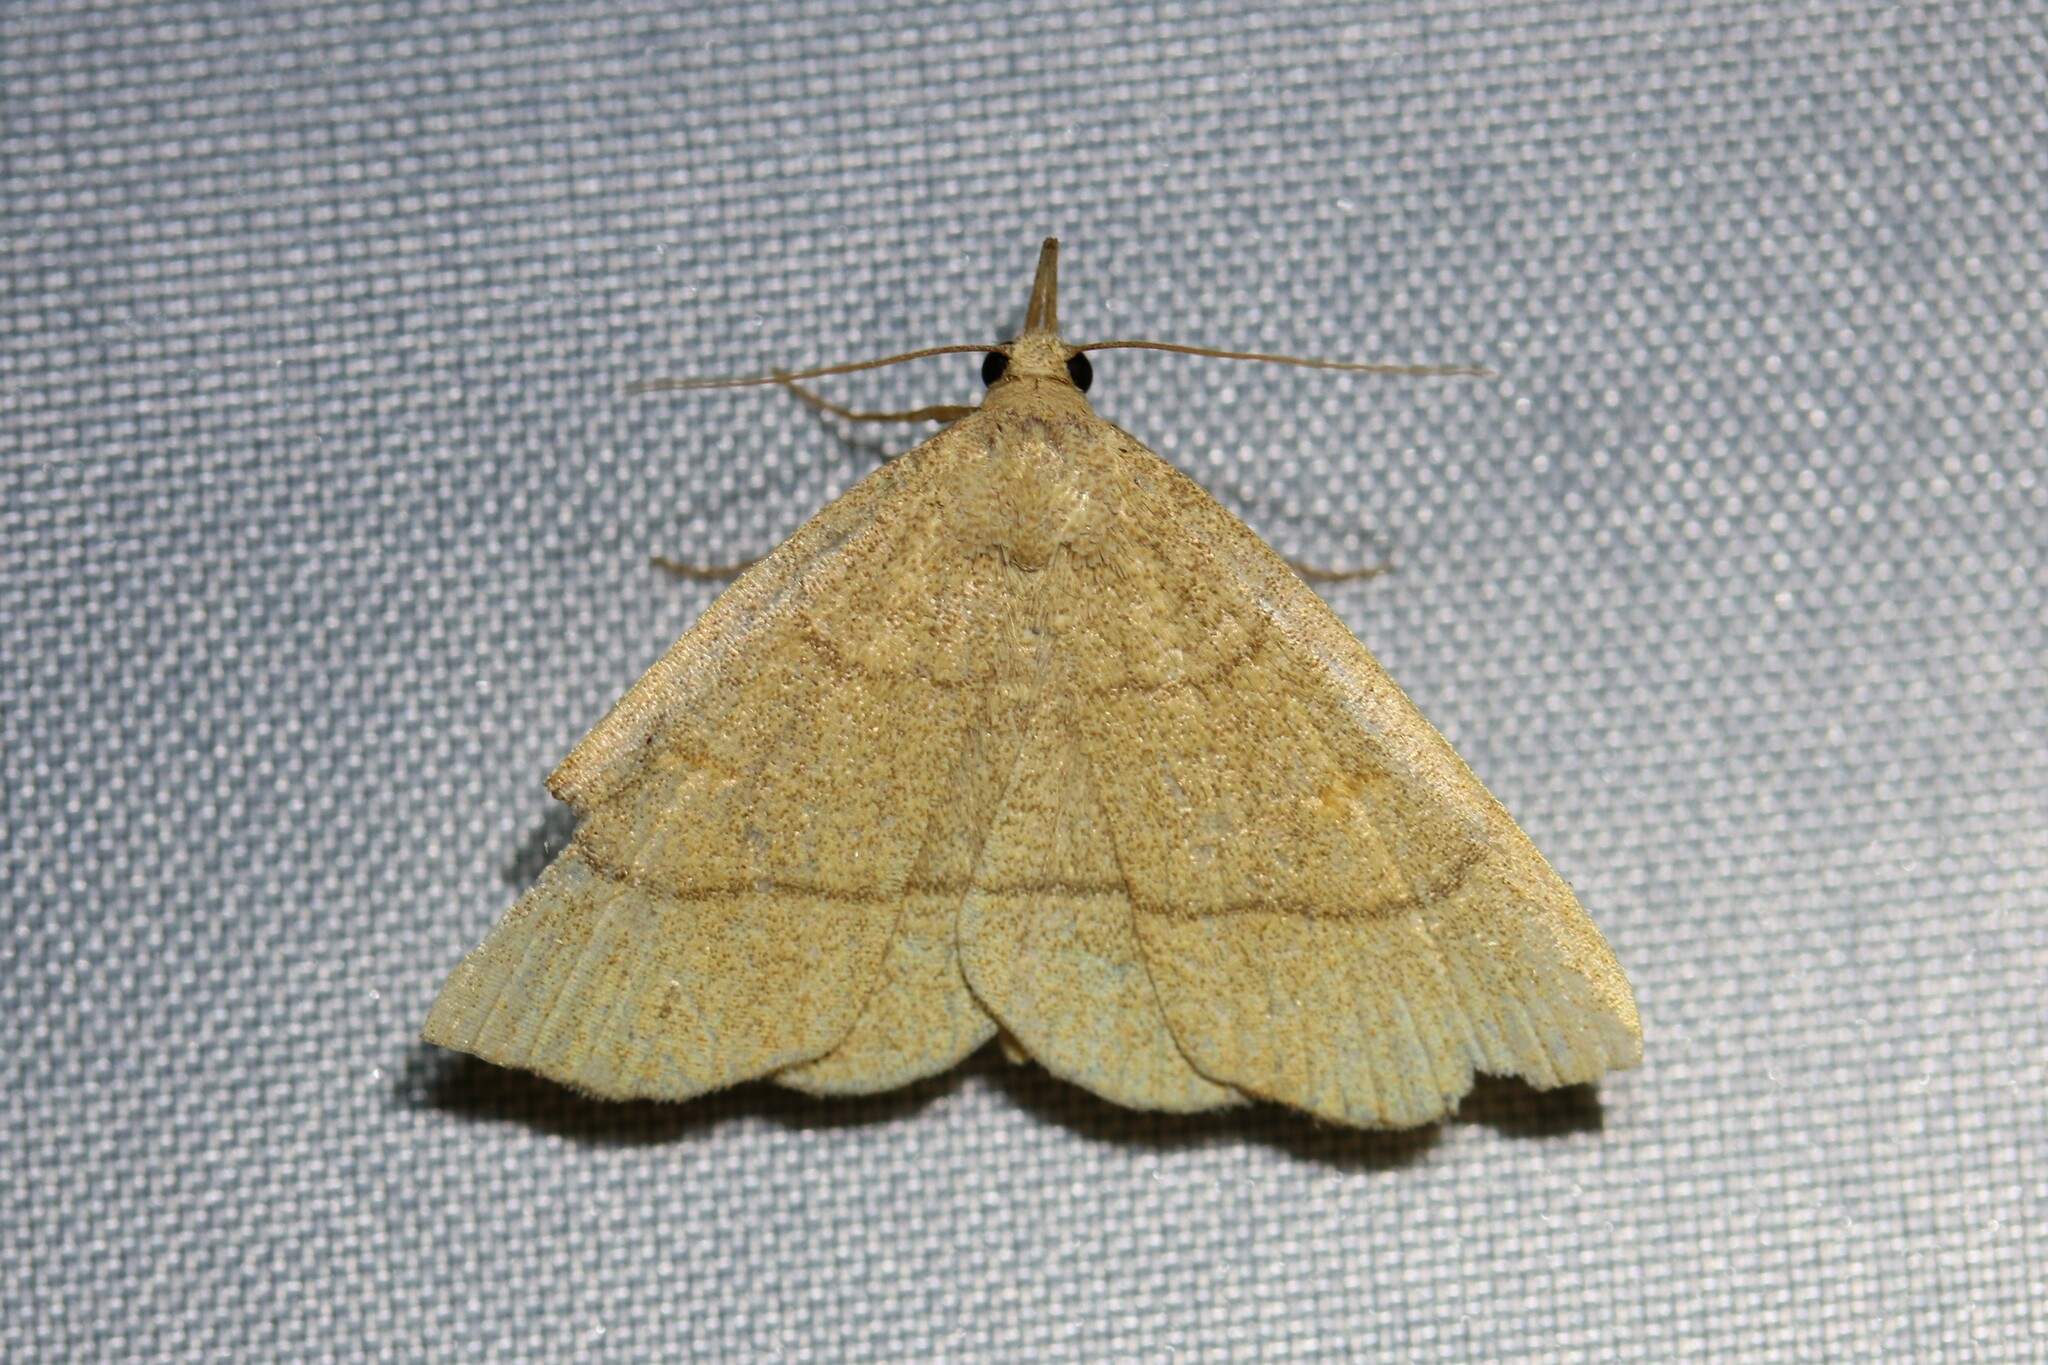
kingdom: Animalia
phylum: Arthropoda
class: Insecta
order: Lepidoptera
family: Erebidae
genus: Paracolax
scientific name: Paracolax tristalis
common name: Clay fan-foot
